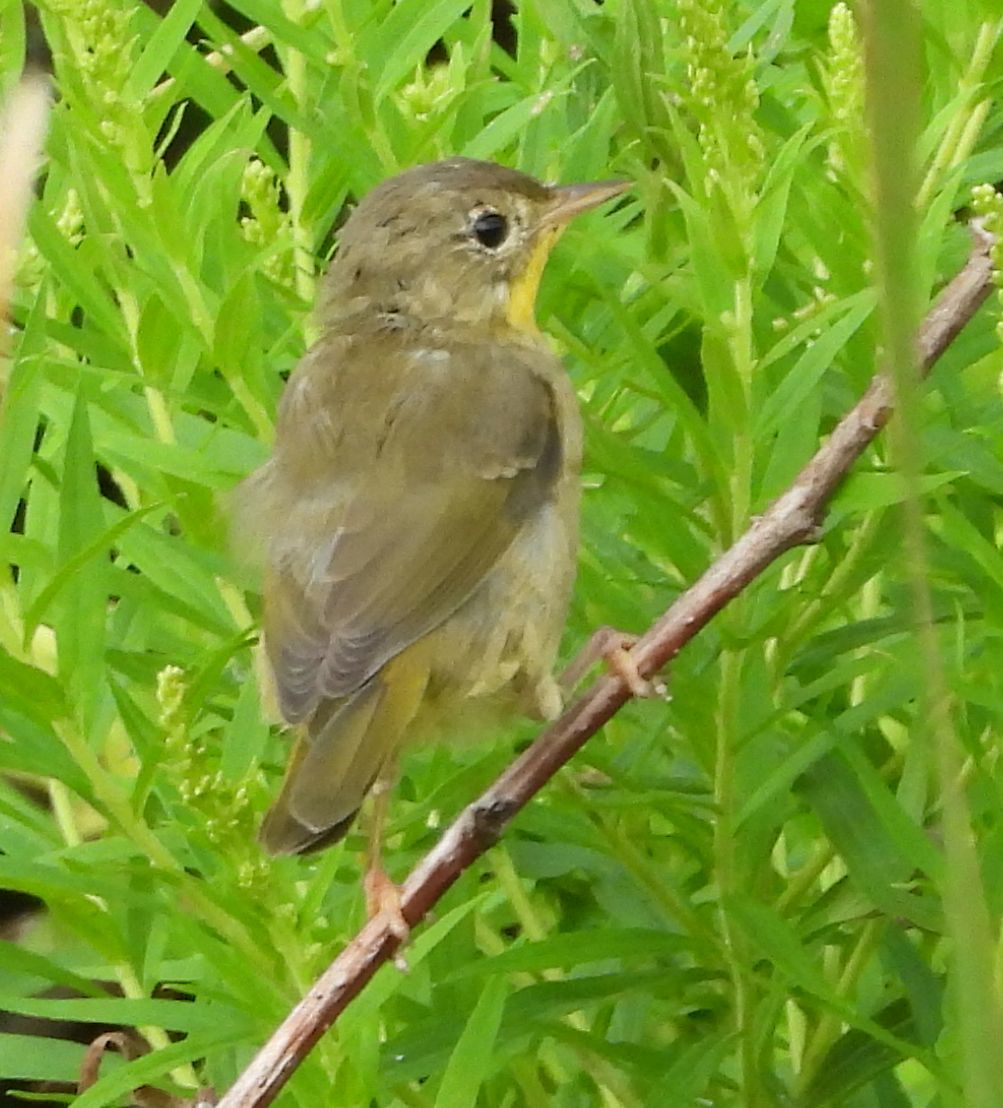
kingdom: Animalia
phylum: Chordata
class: Aves
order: Passeriformes
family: Parulidae
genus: Geothlypis
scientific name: Geothlypis trichas
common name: Common yellowthroat
